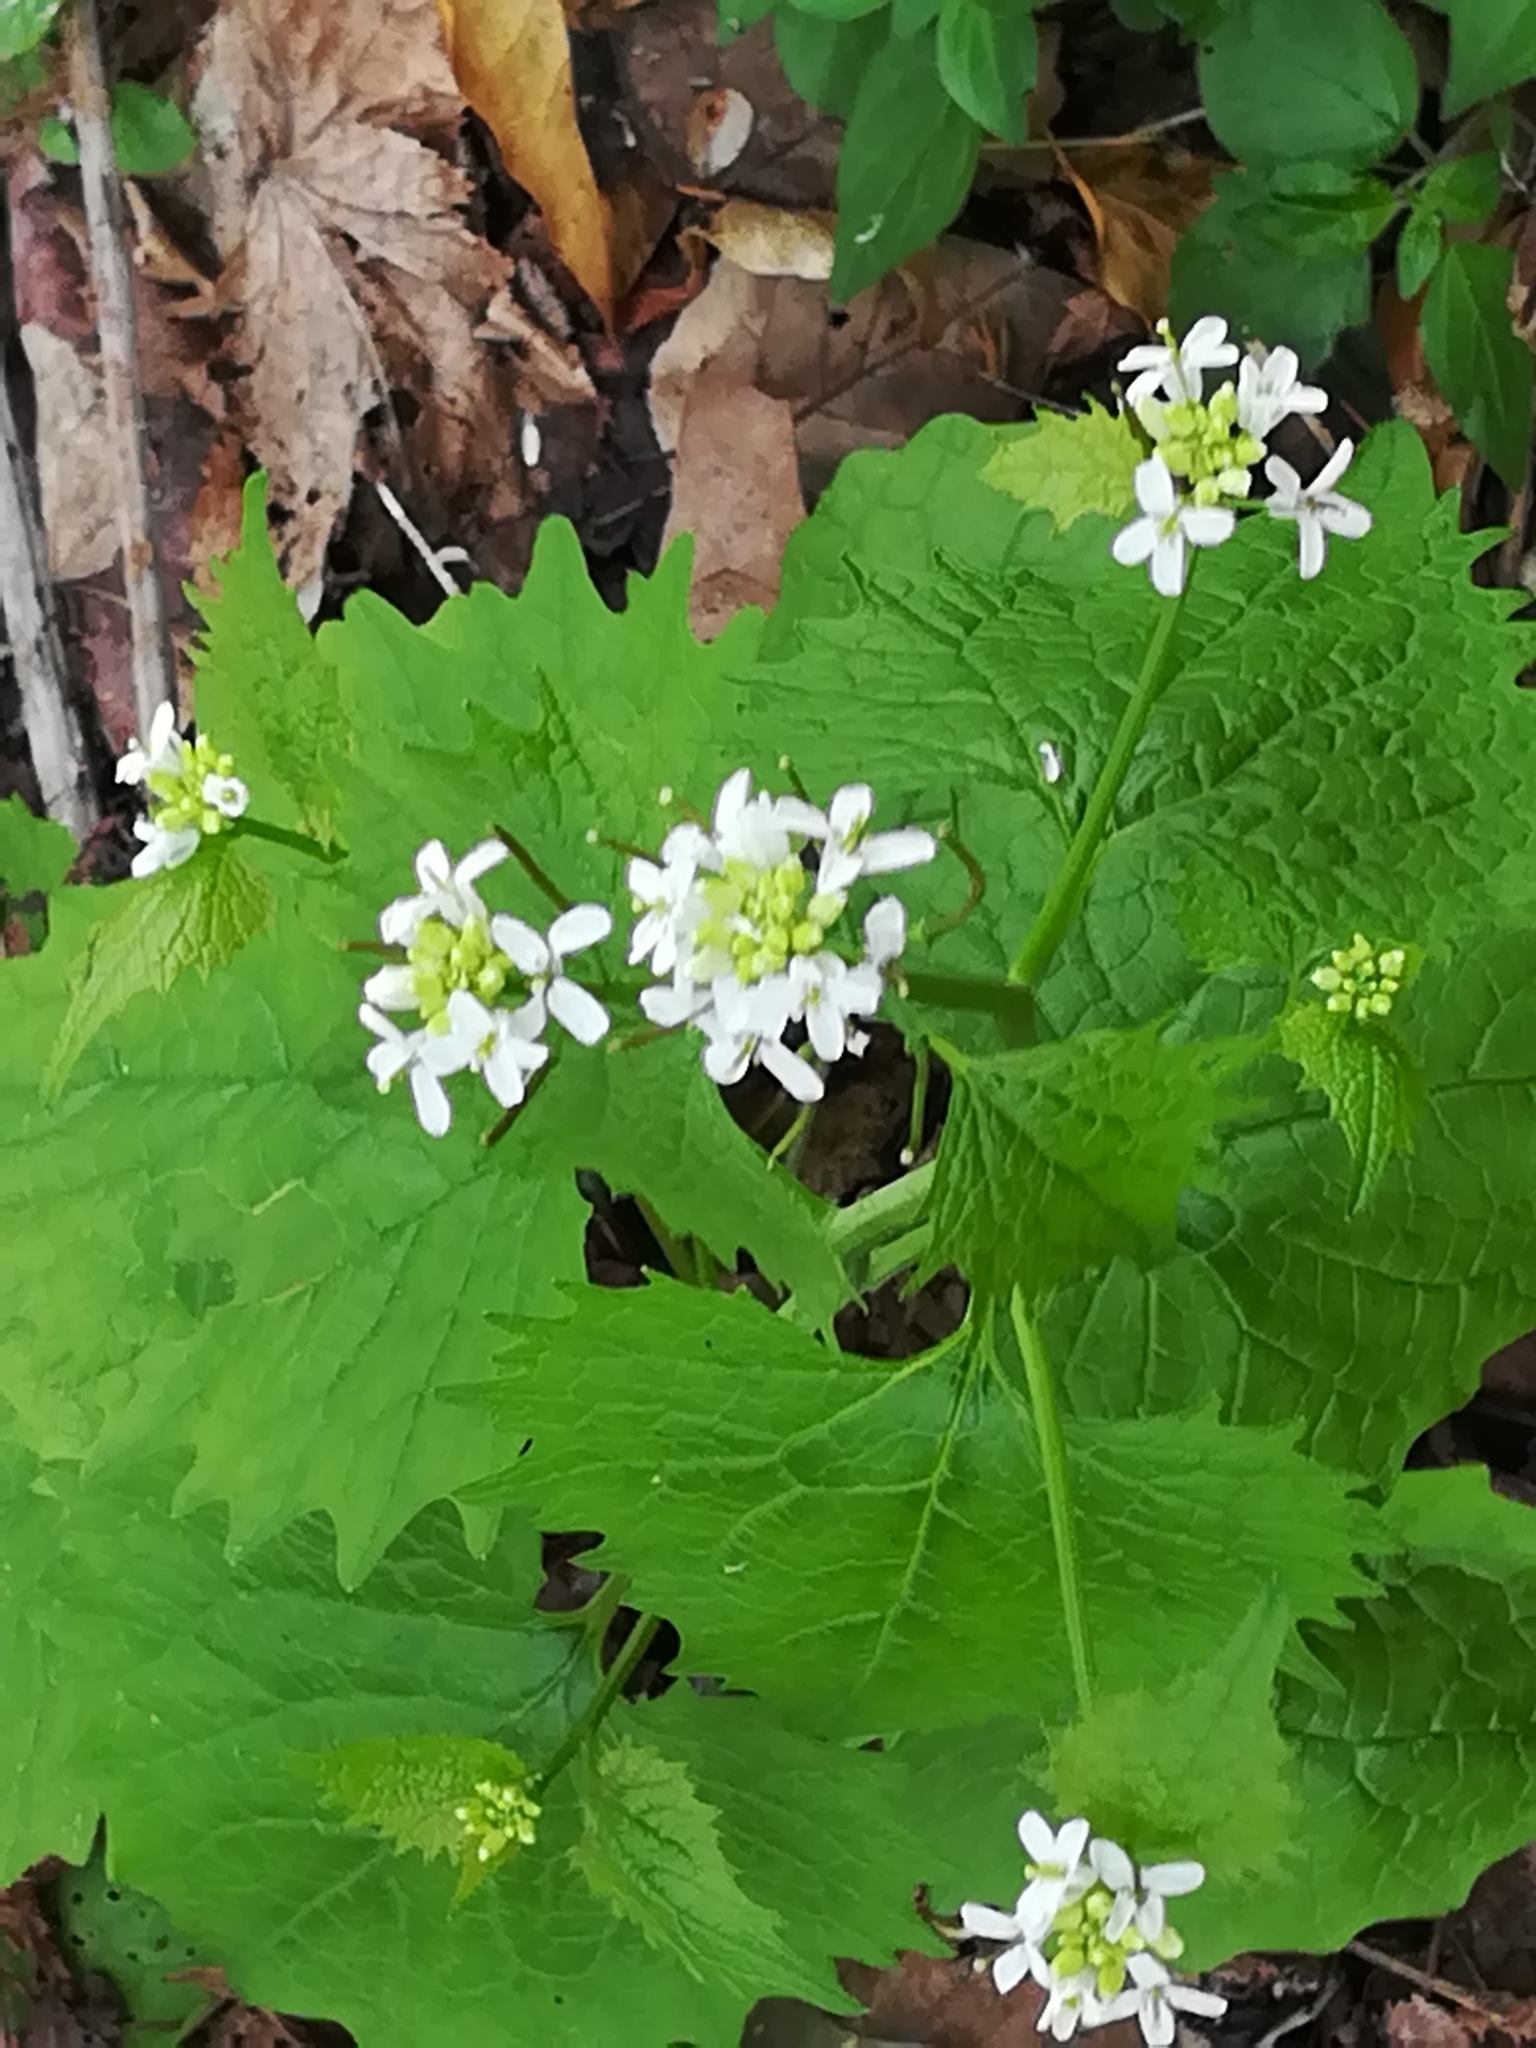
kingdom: Plantae
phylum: Tracheophyta
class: Magnoliopsida
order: Brassicales
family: Brassicaceae
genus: Alliaria
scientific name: Alliaria petiolata
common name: Garlic mustard
